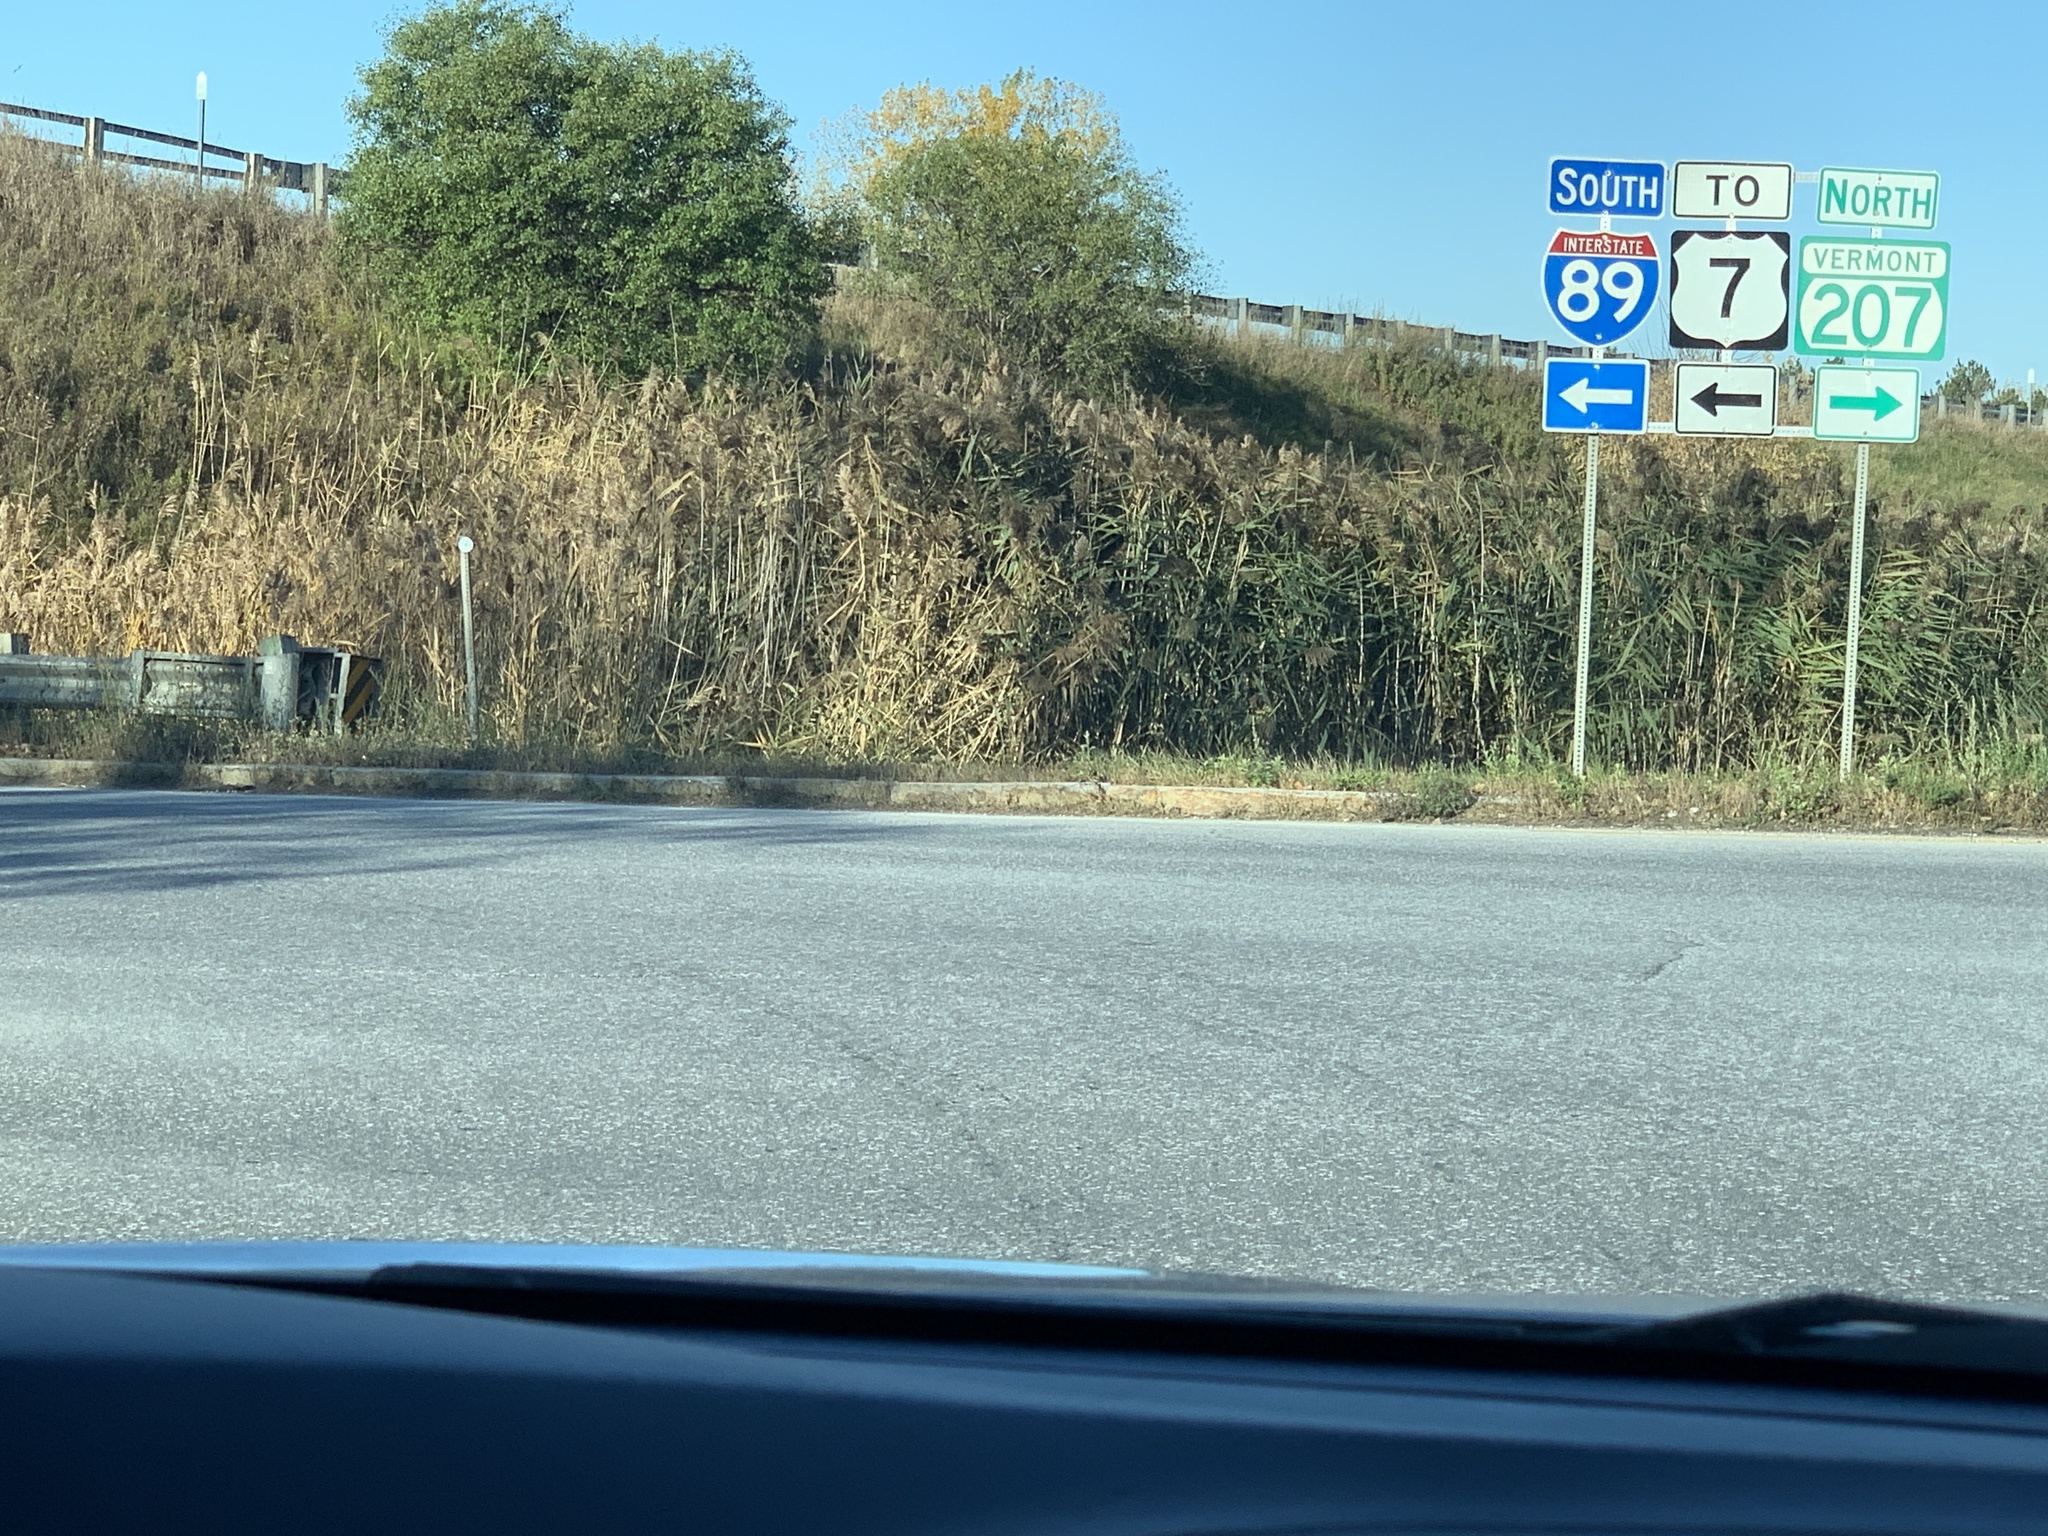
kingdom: Plantae
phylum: Tracheophyta
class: Liliopsida
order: Poales
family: Poaceae
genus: Phragmites
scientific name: Phragmites australis
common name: Common reed
